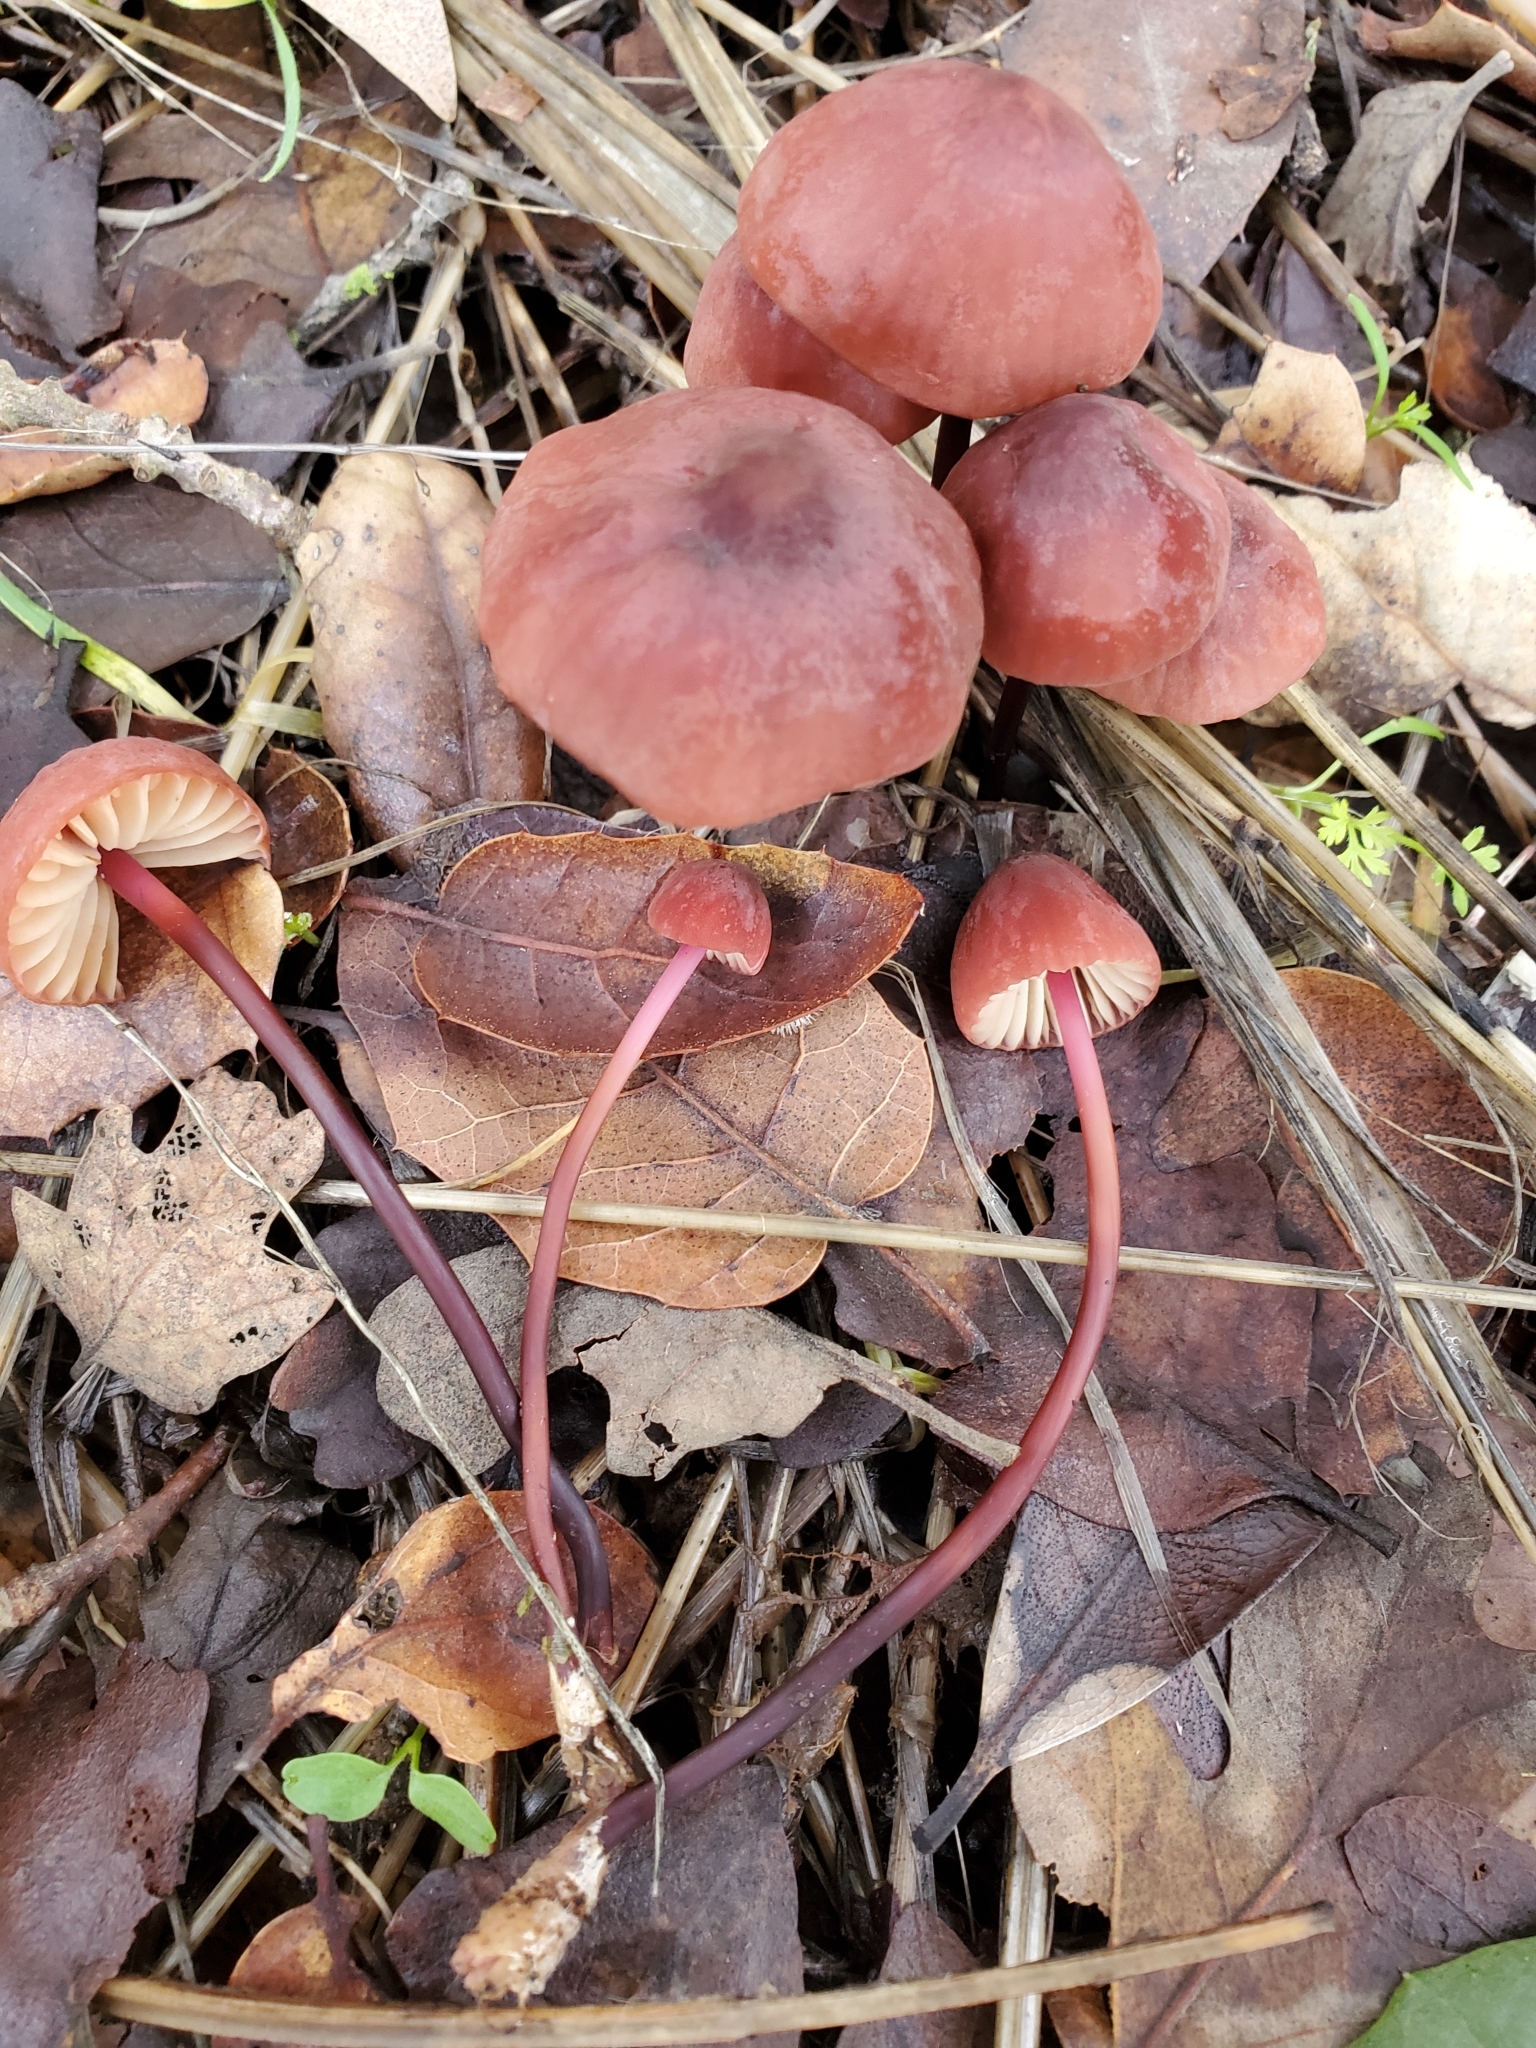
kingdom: Fungi
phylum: Basidiomycota
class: Agaricomycetes
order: Agaricales
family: Marasmiaceae
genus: Marasmius
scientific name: Marasmius plicatulus
